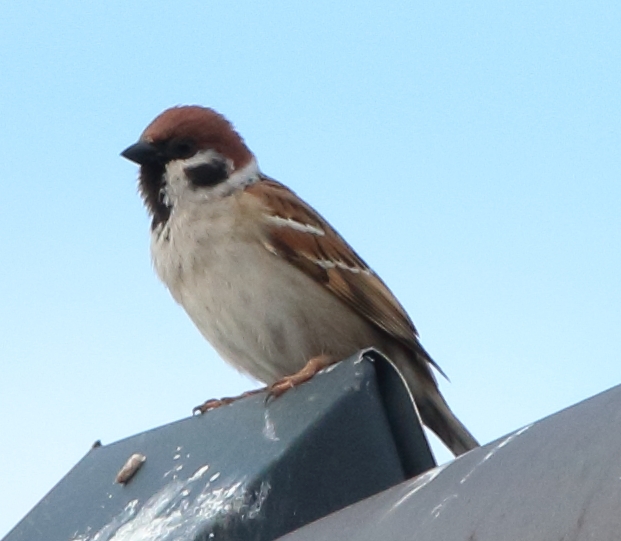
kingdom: Animalia
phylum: Chordata
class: Aves
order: Passeriformes
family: Passeridae
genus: Passer
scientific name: Passer montanus
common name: Eurasian tree sparrow
